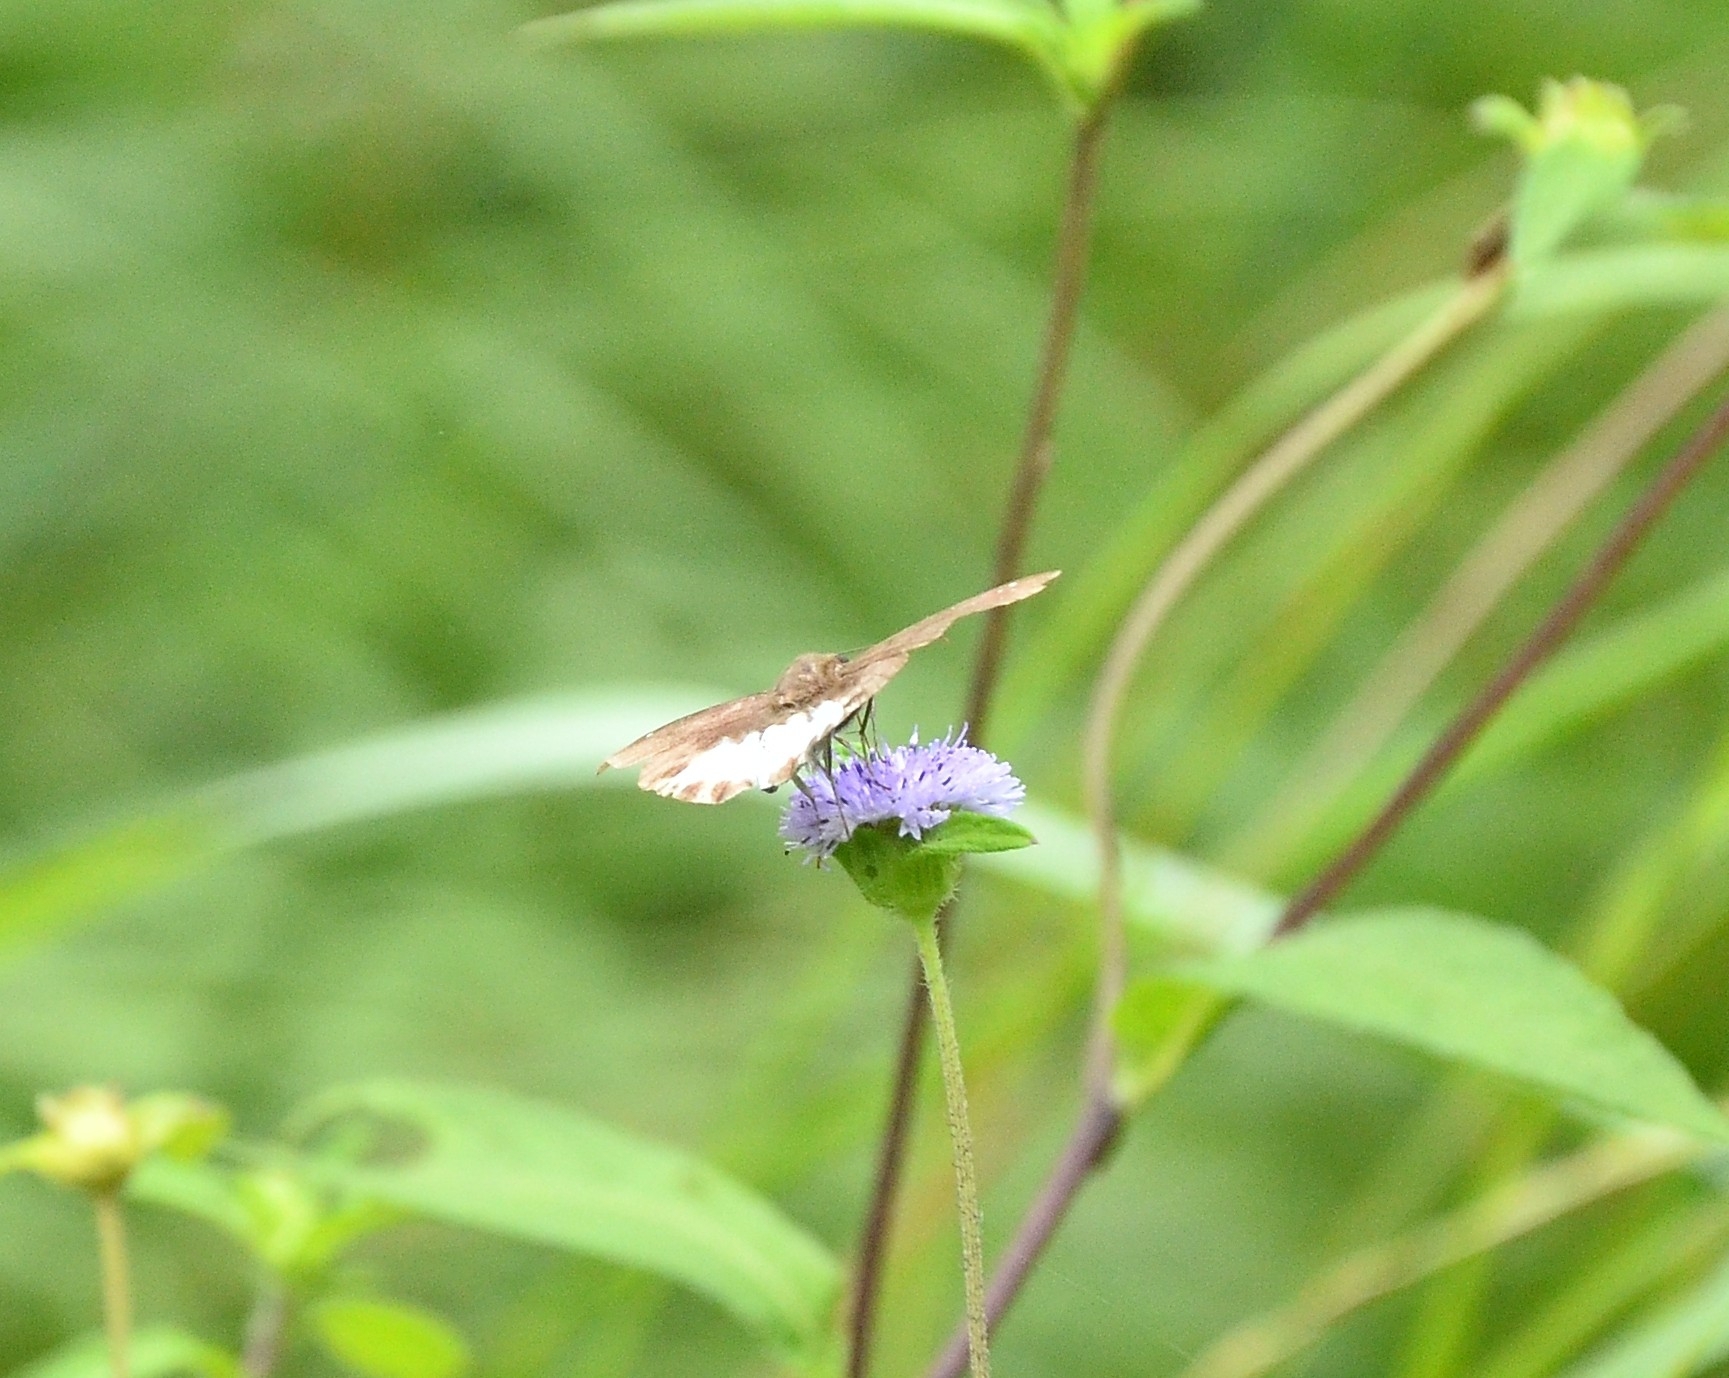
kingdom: Animalia
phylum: Arthropoda
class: Insecta
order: Lepidoptera
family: Hesperiidae
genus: Tagiades
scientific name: Tagiades litigiosa
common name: Water snow flat
